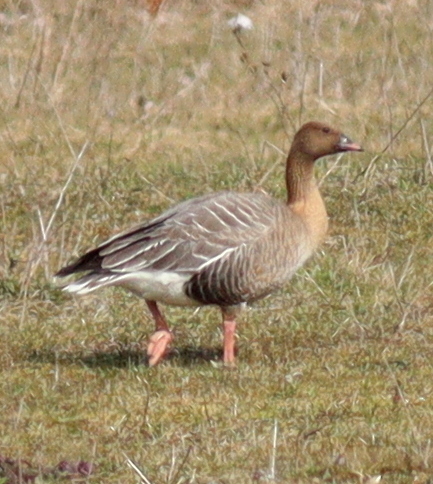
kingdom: Animalia
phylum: Chordata
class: Aves
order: Anseriformes
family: Anatidae
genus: Anser
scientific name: Anser brachyrhynchus
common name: Pink-footed goose
